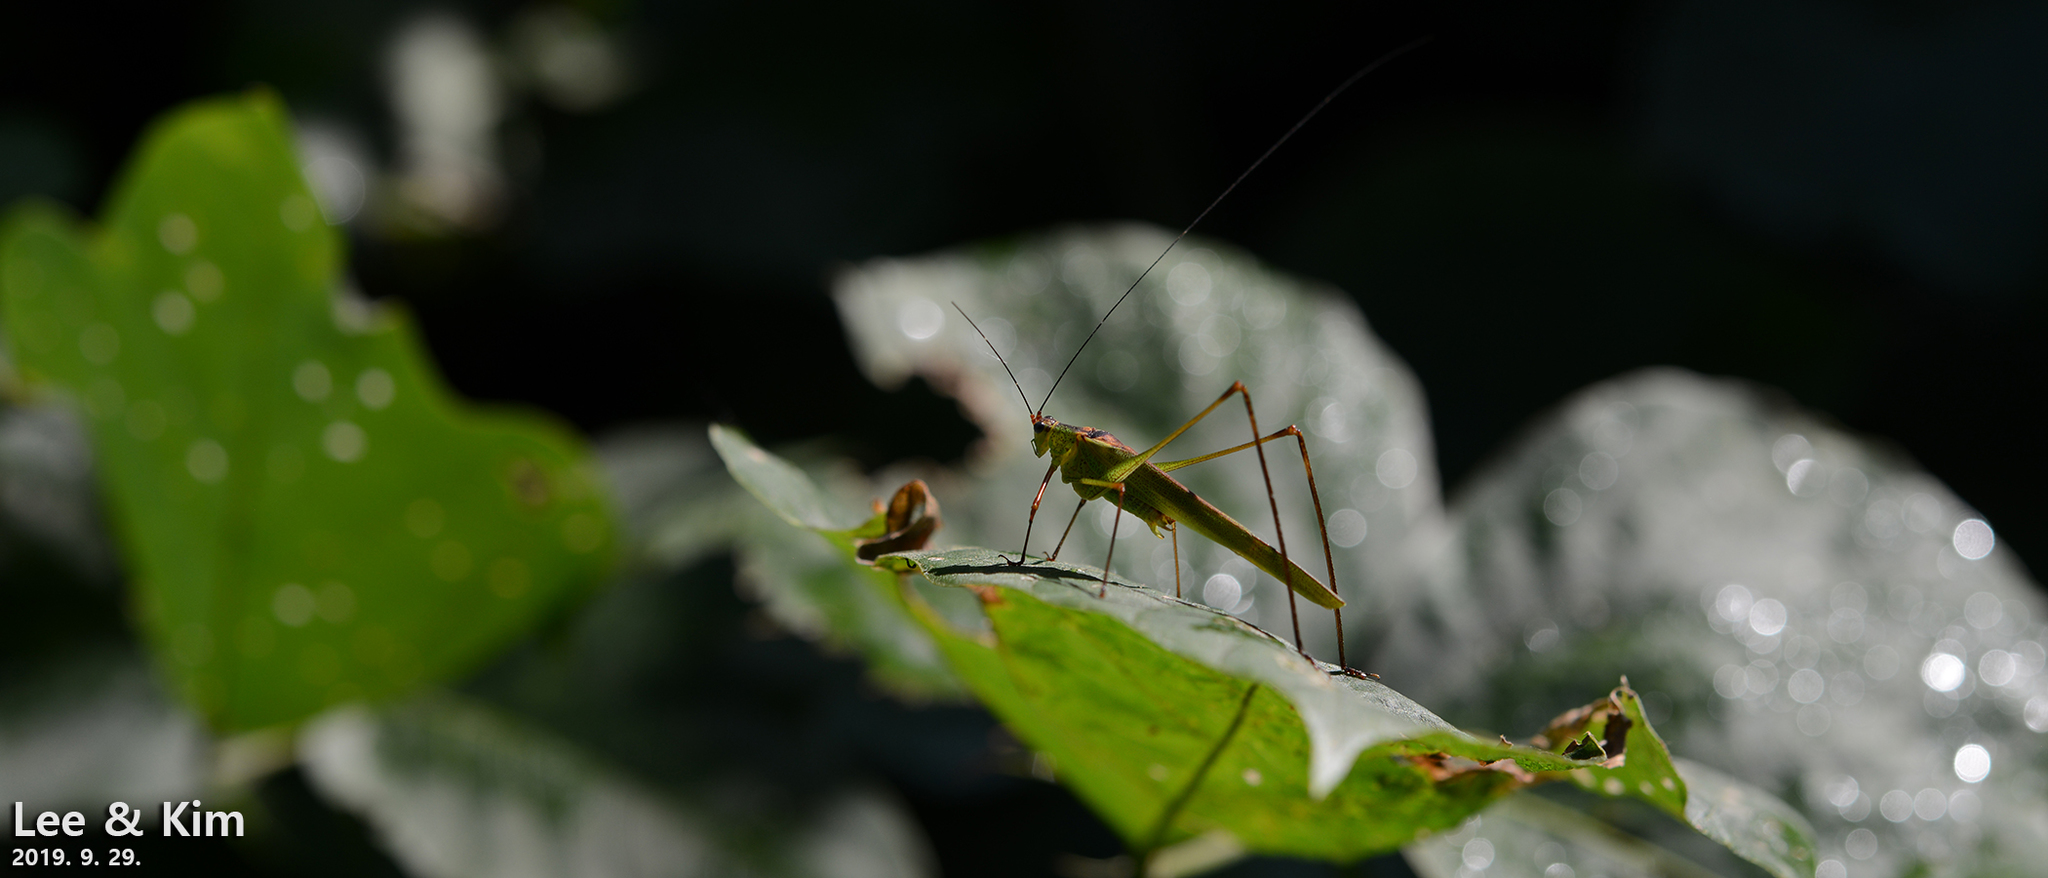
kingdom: Animalia
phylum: Arthropoda
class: Insecta
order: Orthoptera
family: Tettigoniidae
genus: Phaneroptera
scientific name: Phaneroptera nigroantennata
